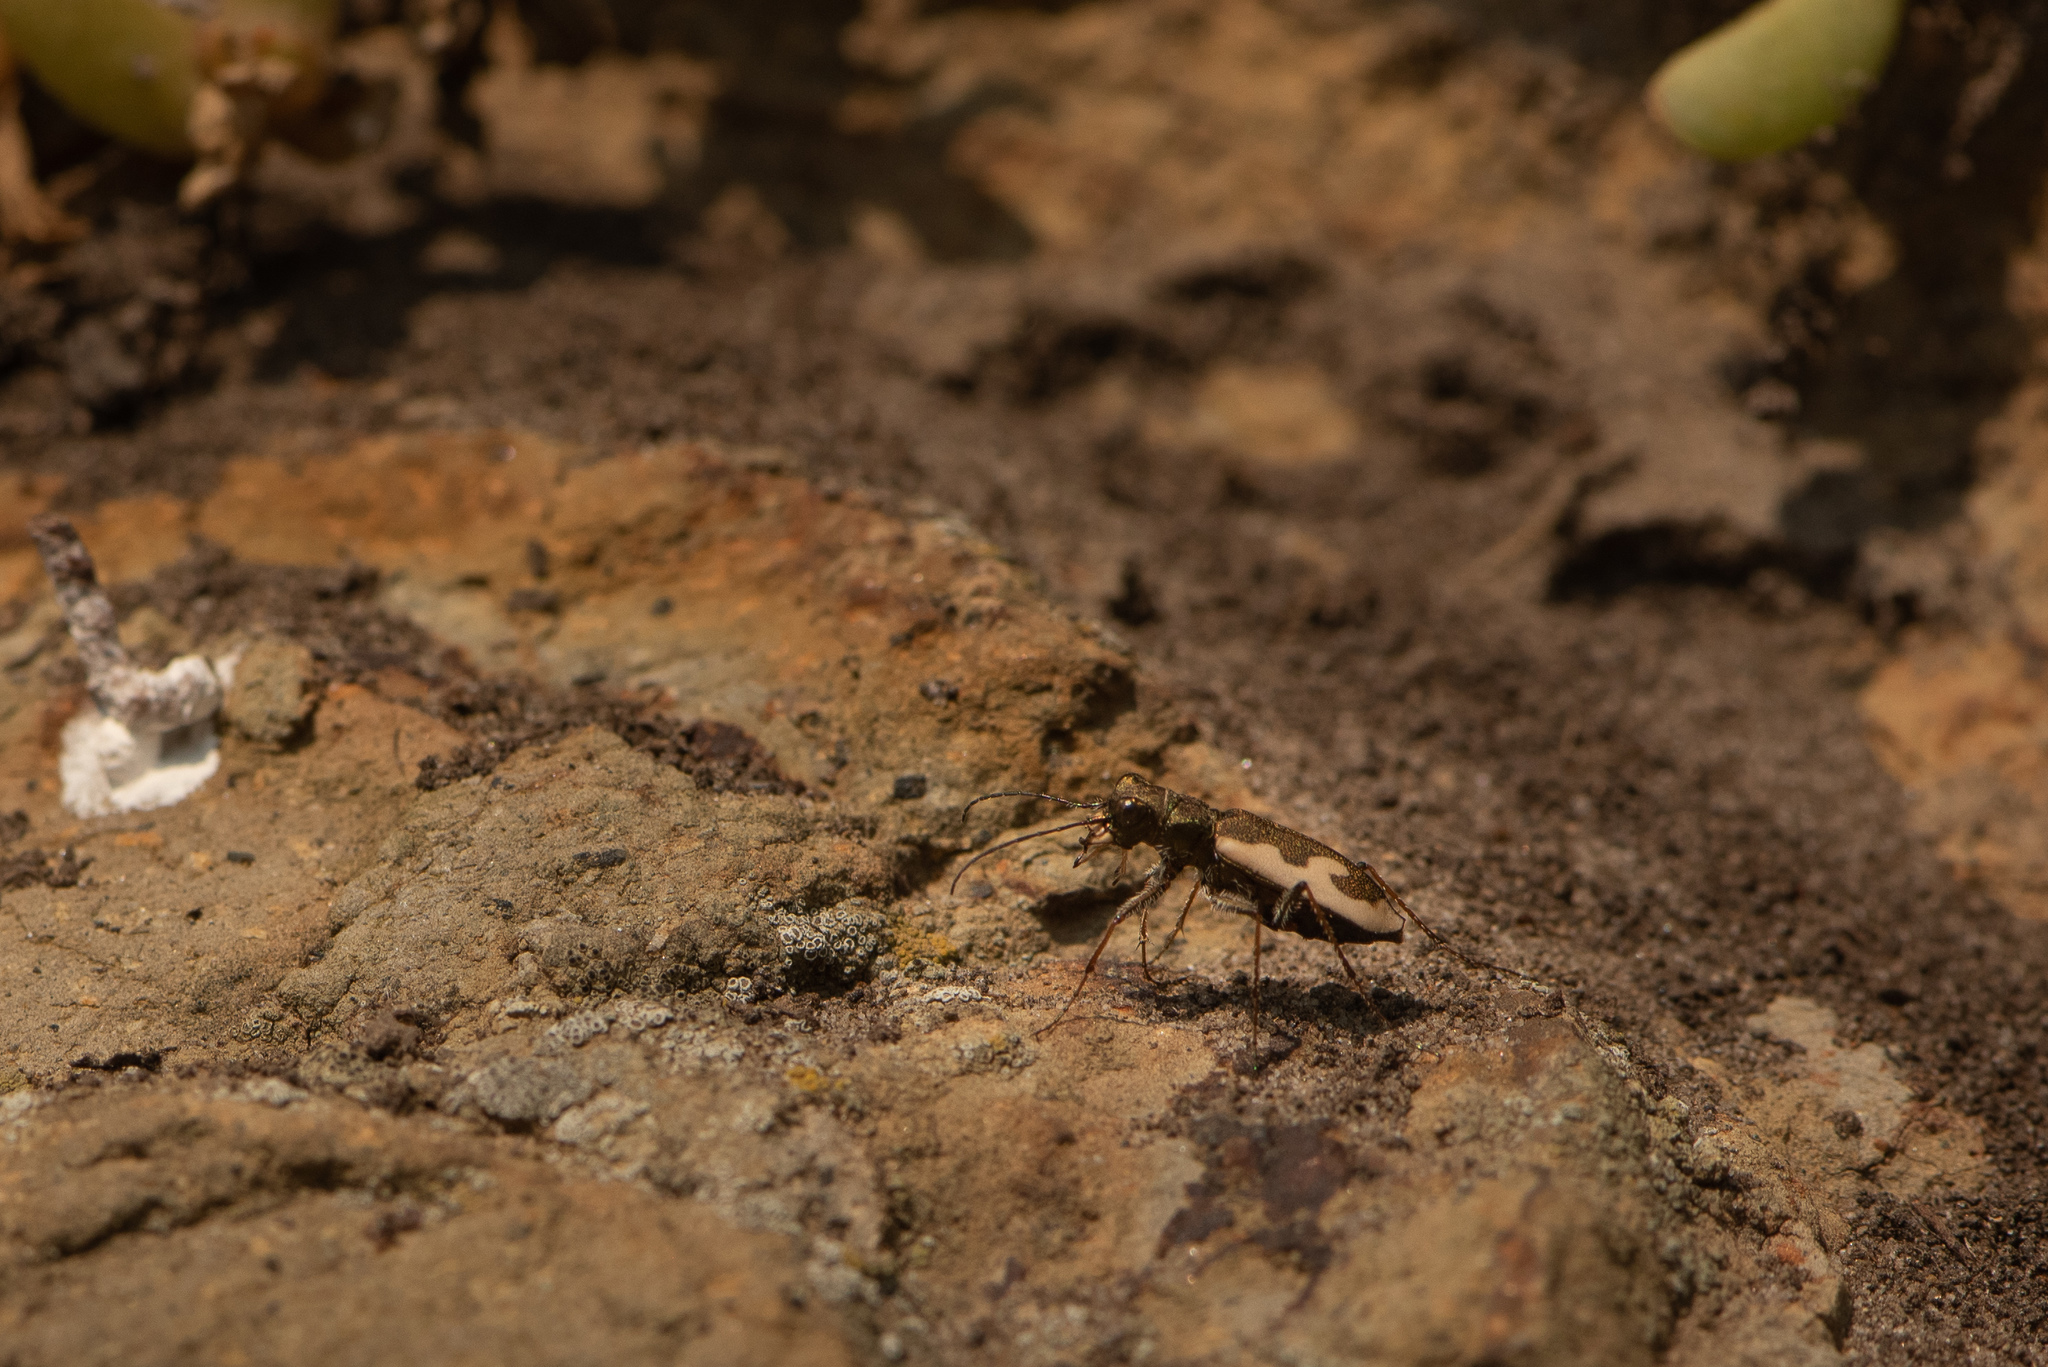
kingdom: Animalia
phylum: Arthropoda
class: Insecta
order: Coleoptera
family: Carabidae
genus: Neocicindela
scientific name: Neocicindela latecincta
